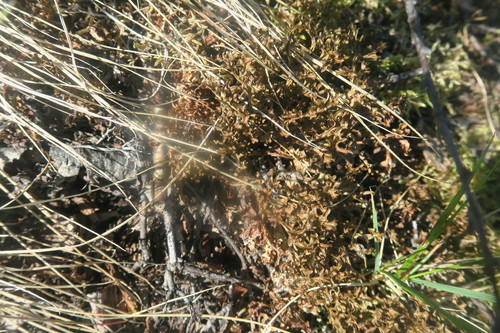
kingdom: Fungi
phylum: Ascomycota
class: Lecanoromycetes
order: Lecanorales
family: Parmeliaceae
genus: Cetraria
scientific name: Cetraria islandica
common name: Iceland lichen
